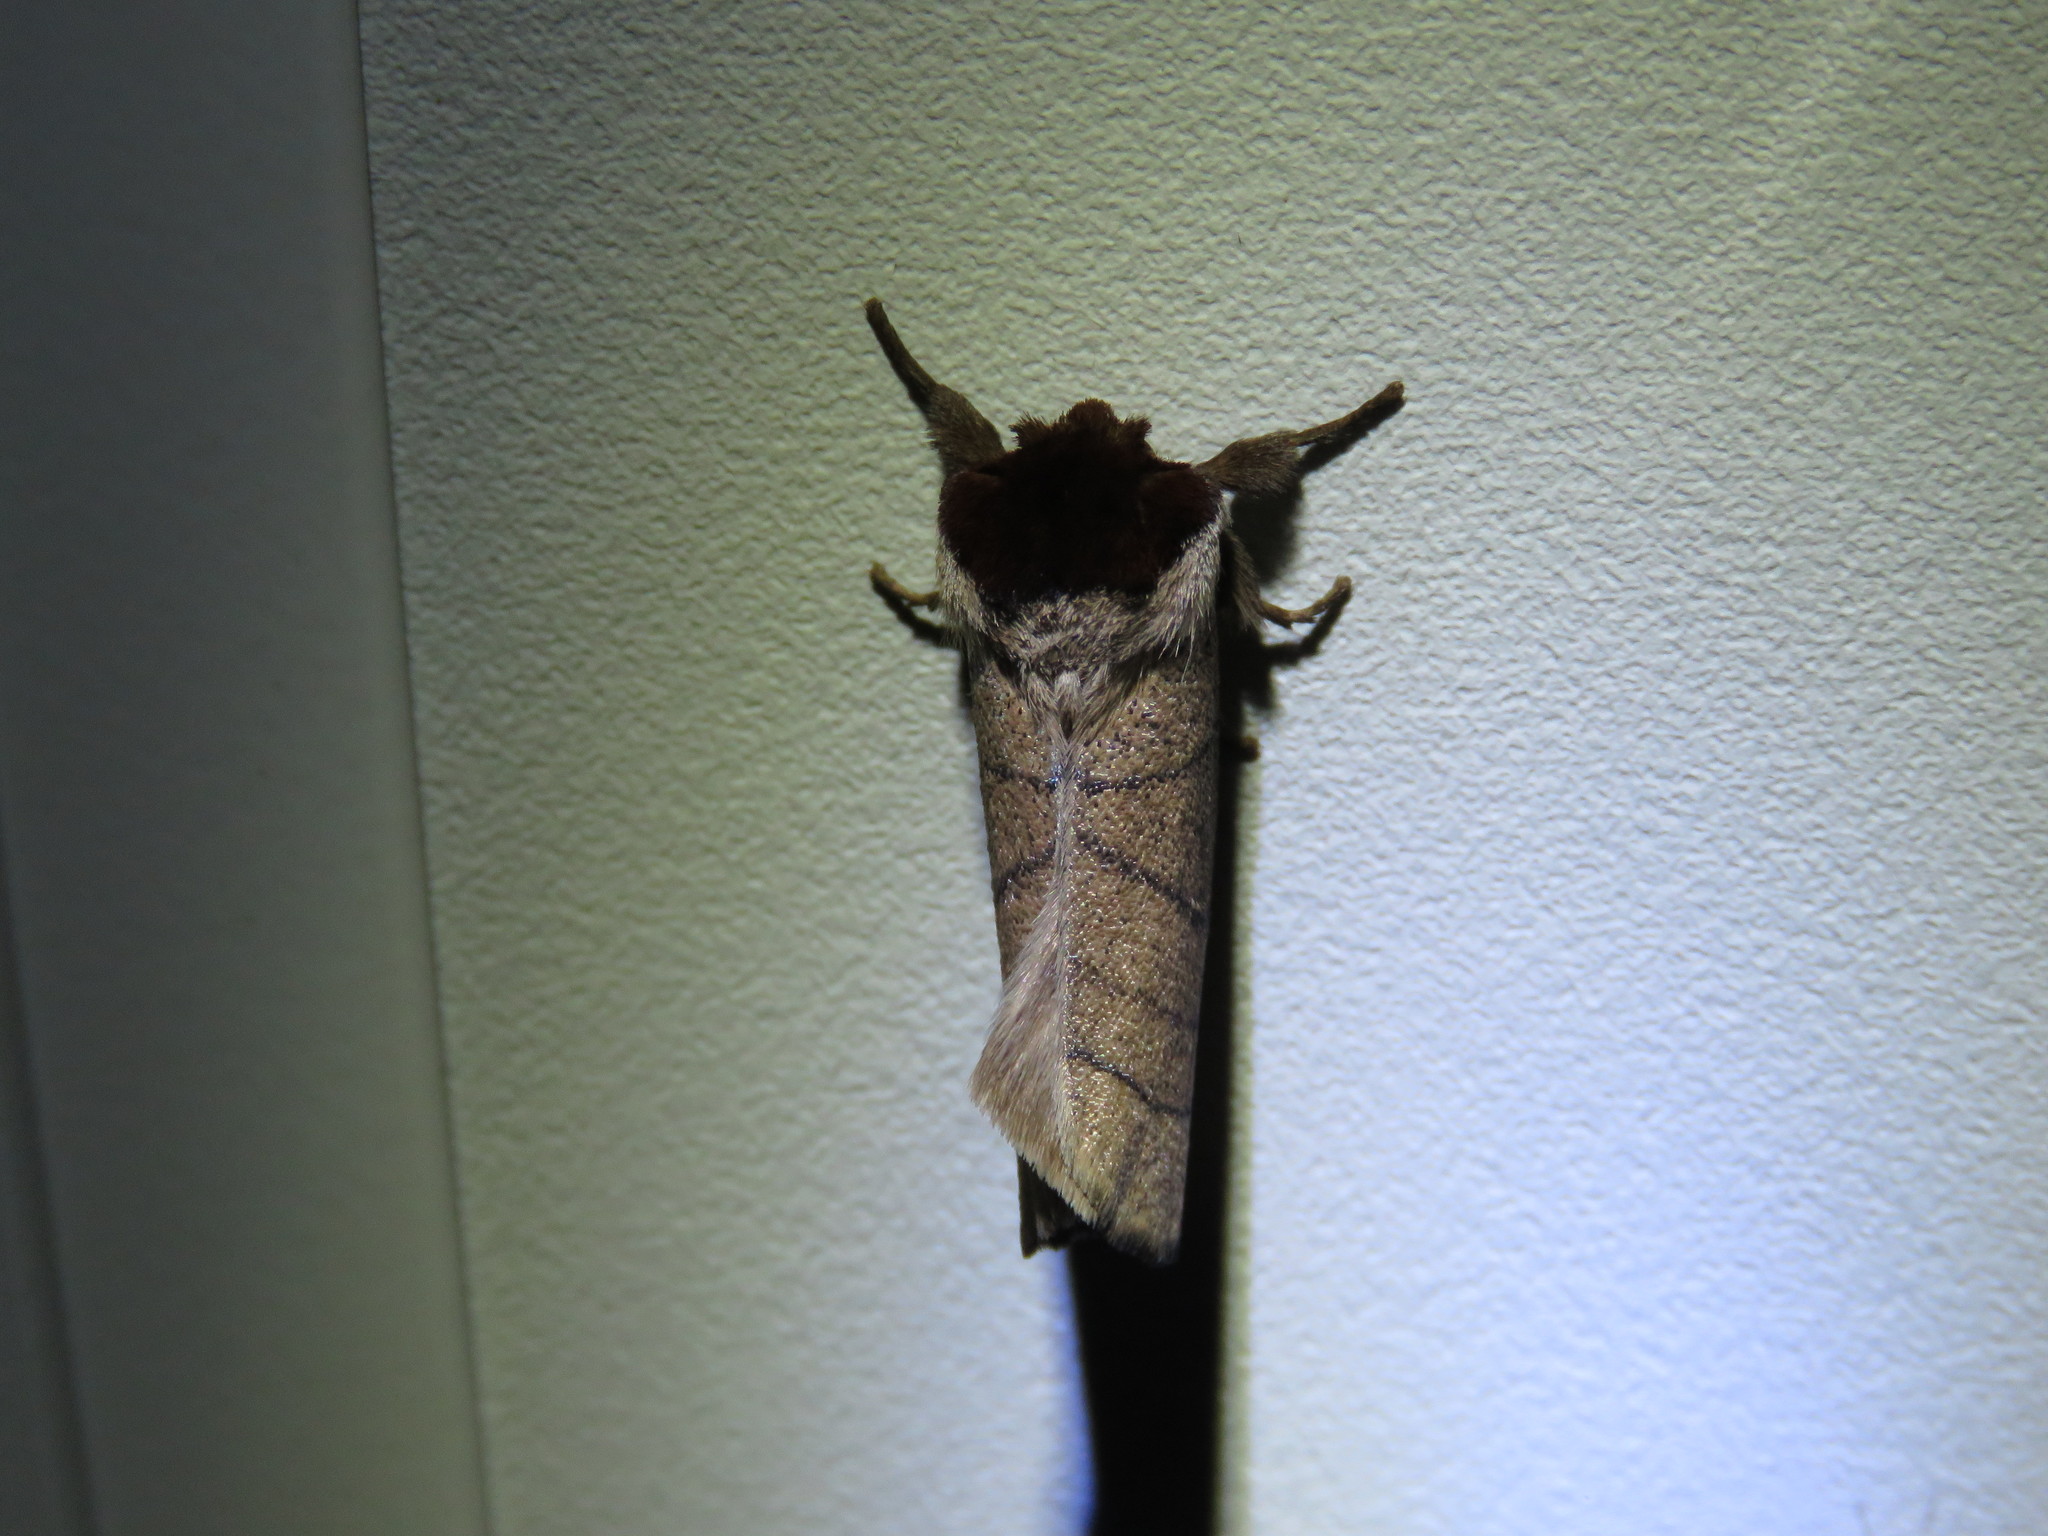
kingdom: Animalia
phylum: Arthropoda
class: Insecta
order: Lepidoptera
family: Notodontidae
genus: Datana
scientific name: Datana angusii
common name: Angus's datana
